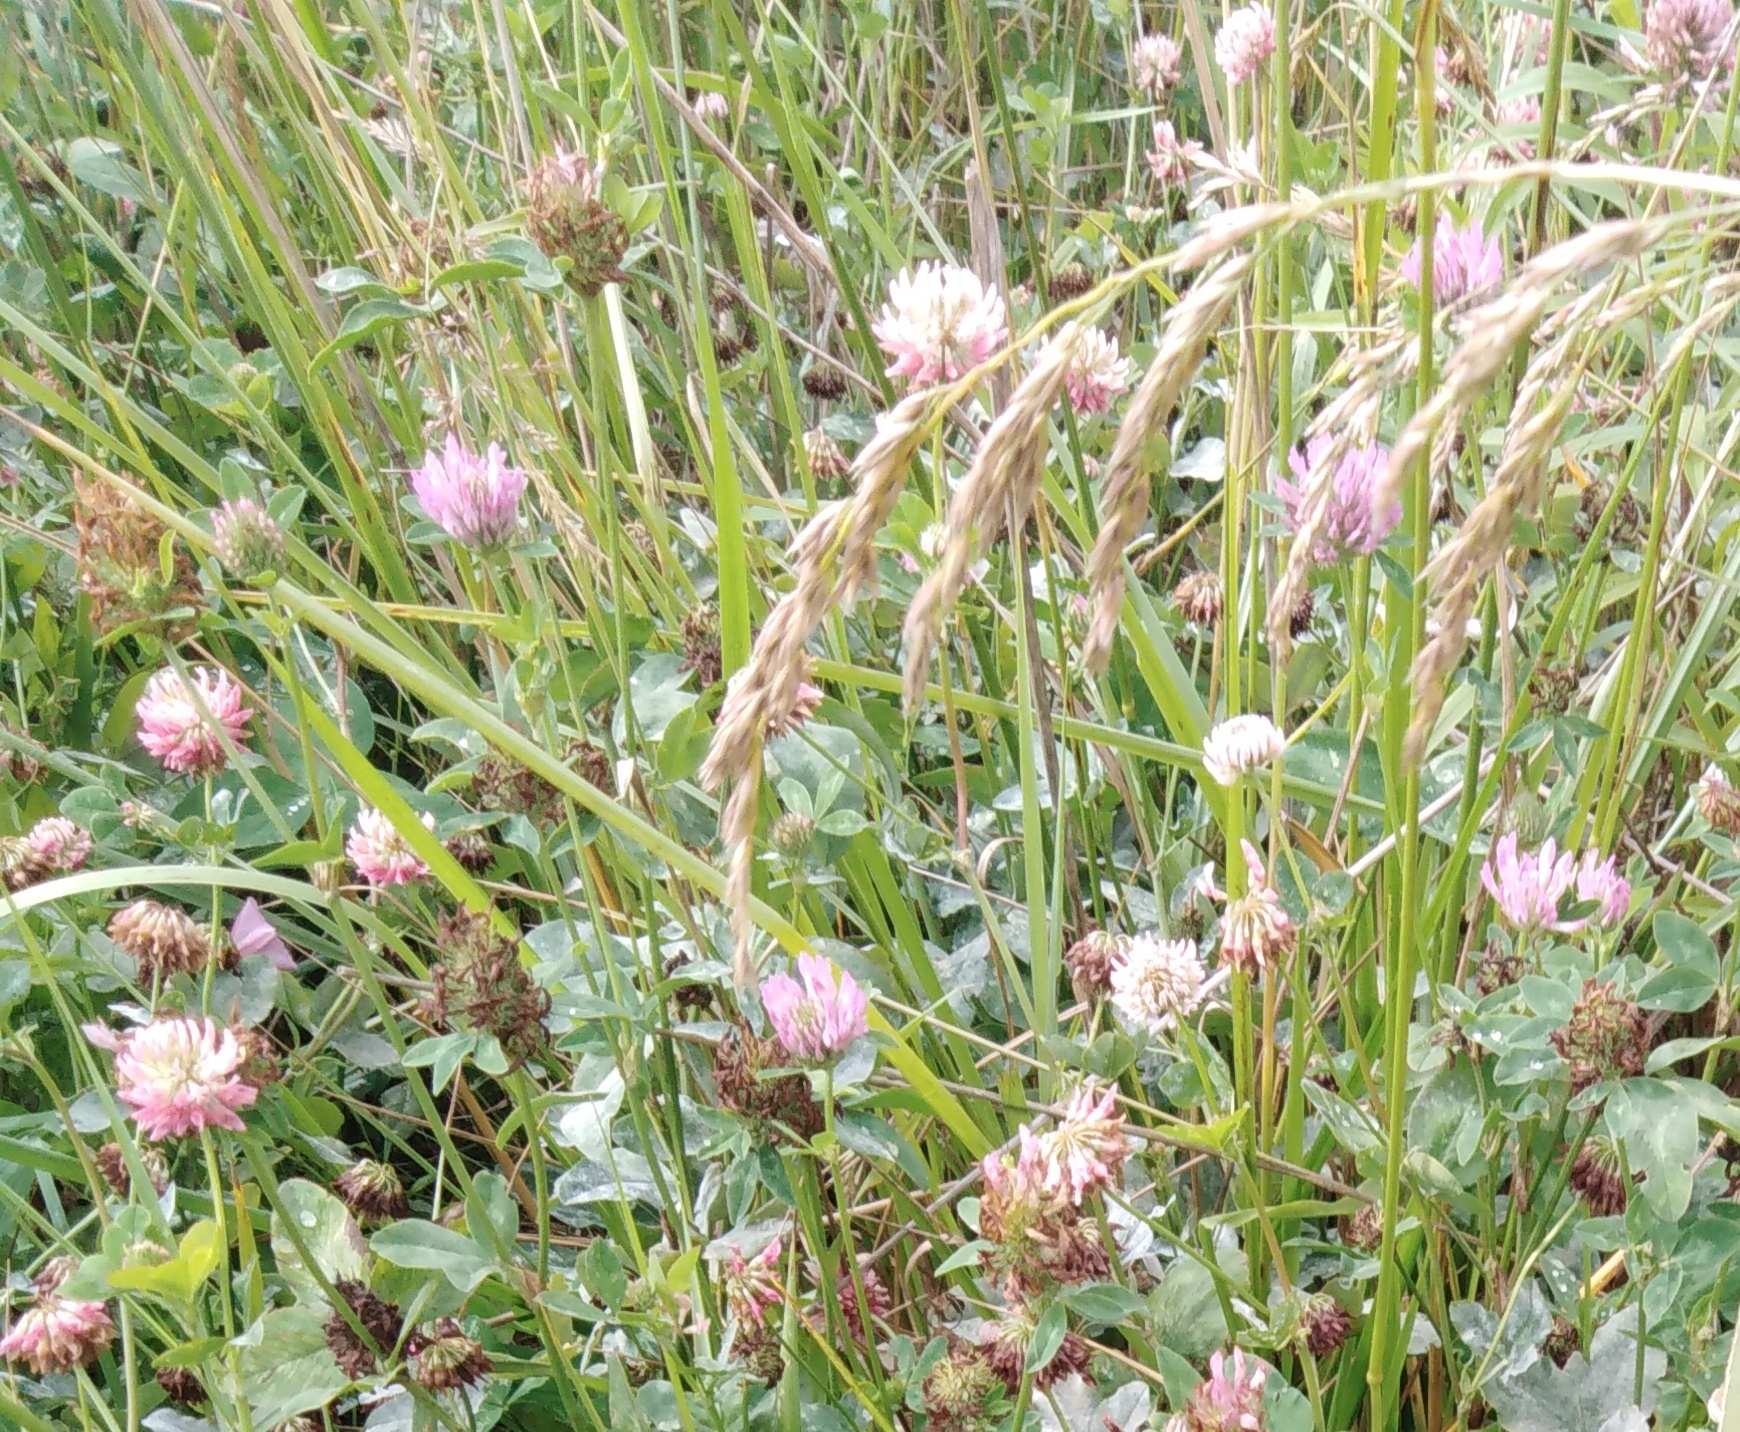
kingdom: Plantae
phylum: Tracheophyta
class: Magnoliopsida
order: Fabales
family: Fabaceae
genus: Trifolium
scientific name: Trifolium hybridum
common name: Alsike clover
